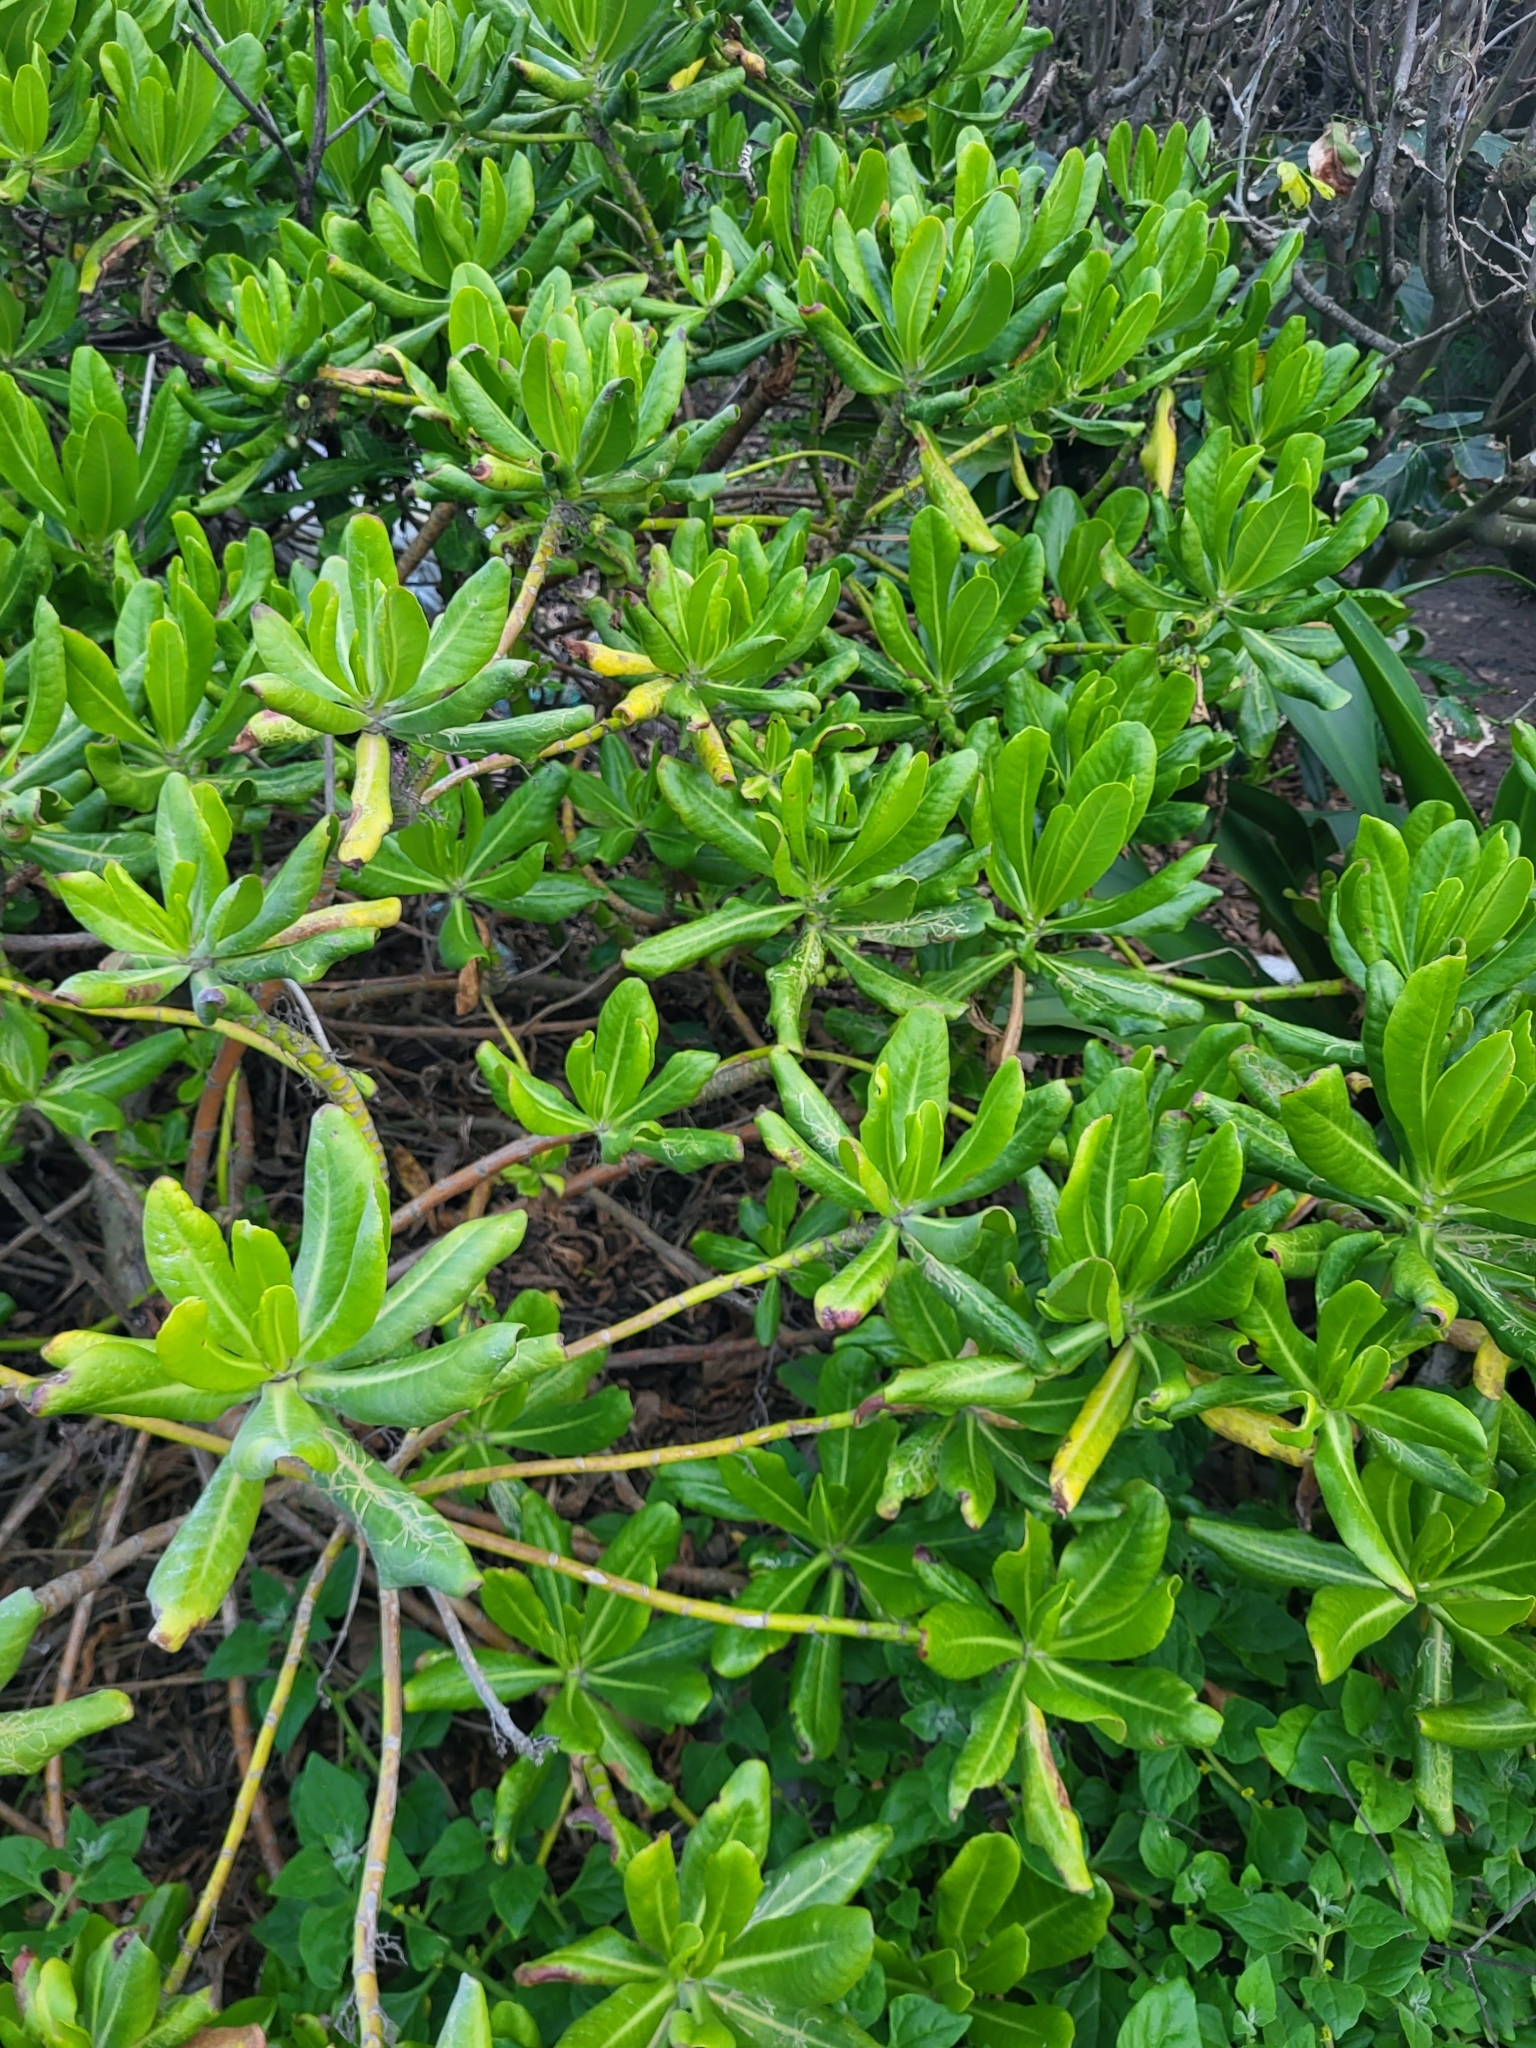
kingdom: Plantae
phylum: Tracheophyta
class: Magnoliopsida
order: Asterales
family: Goodeniaceae
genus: Scaevola
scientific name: Scaevola taccada
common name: Sea lettucetree
